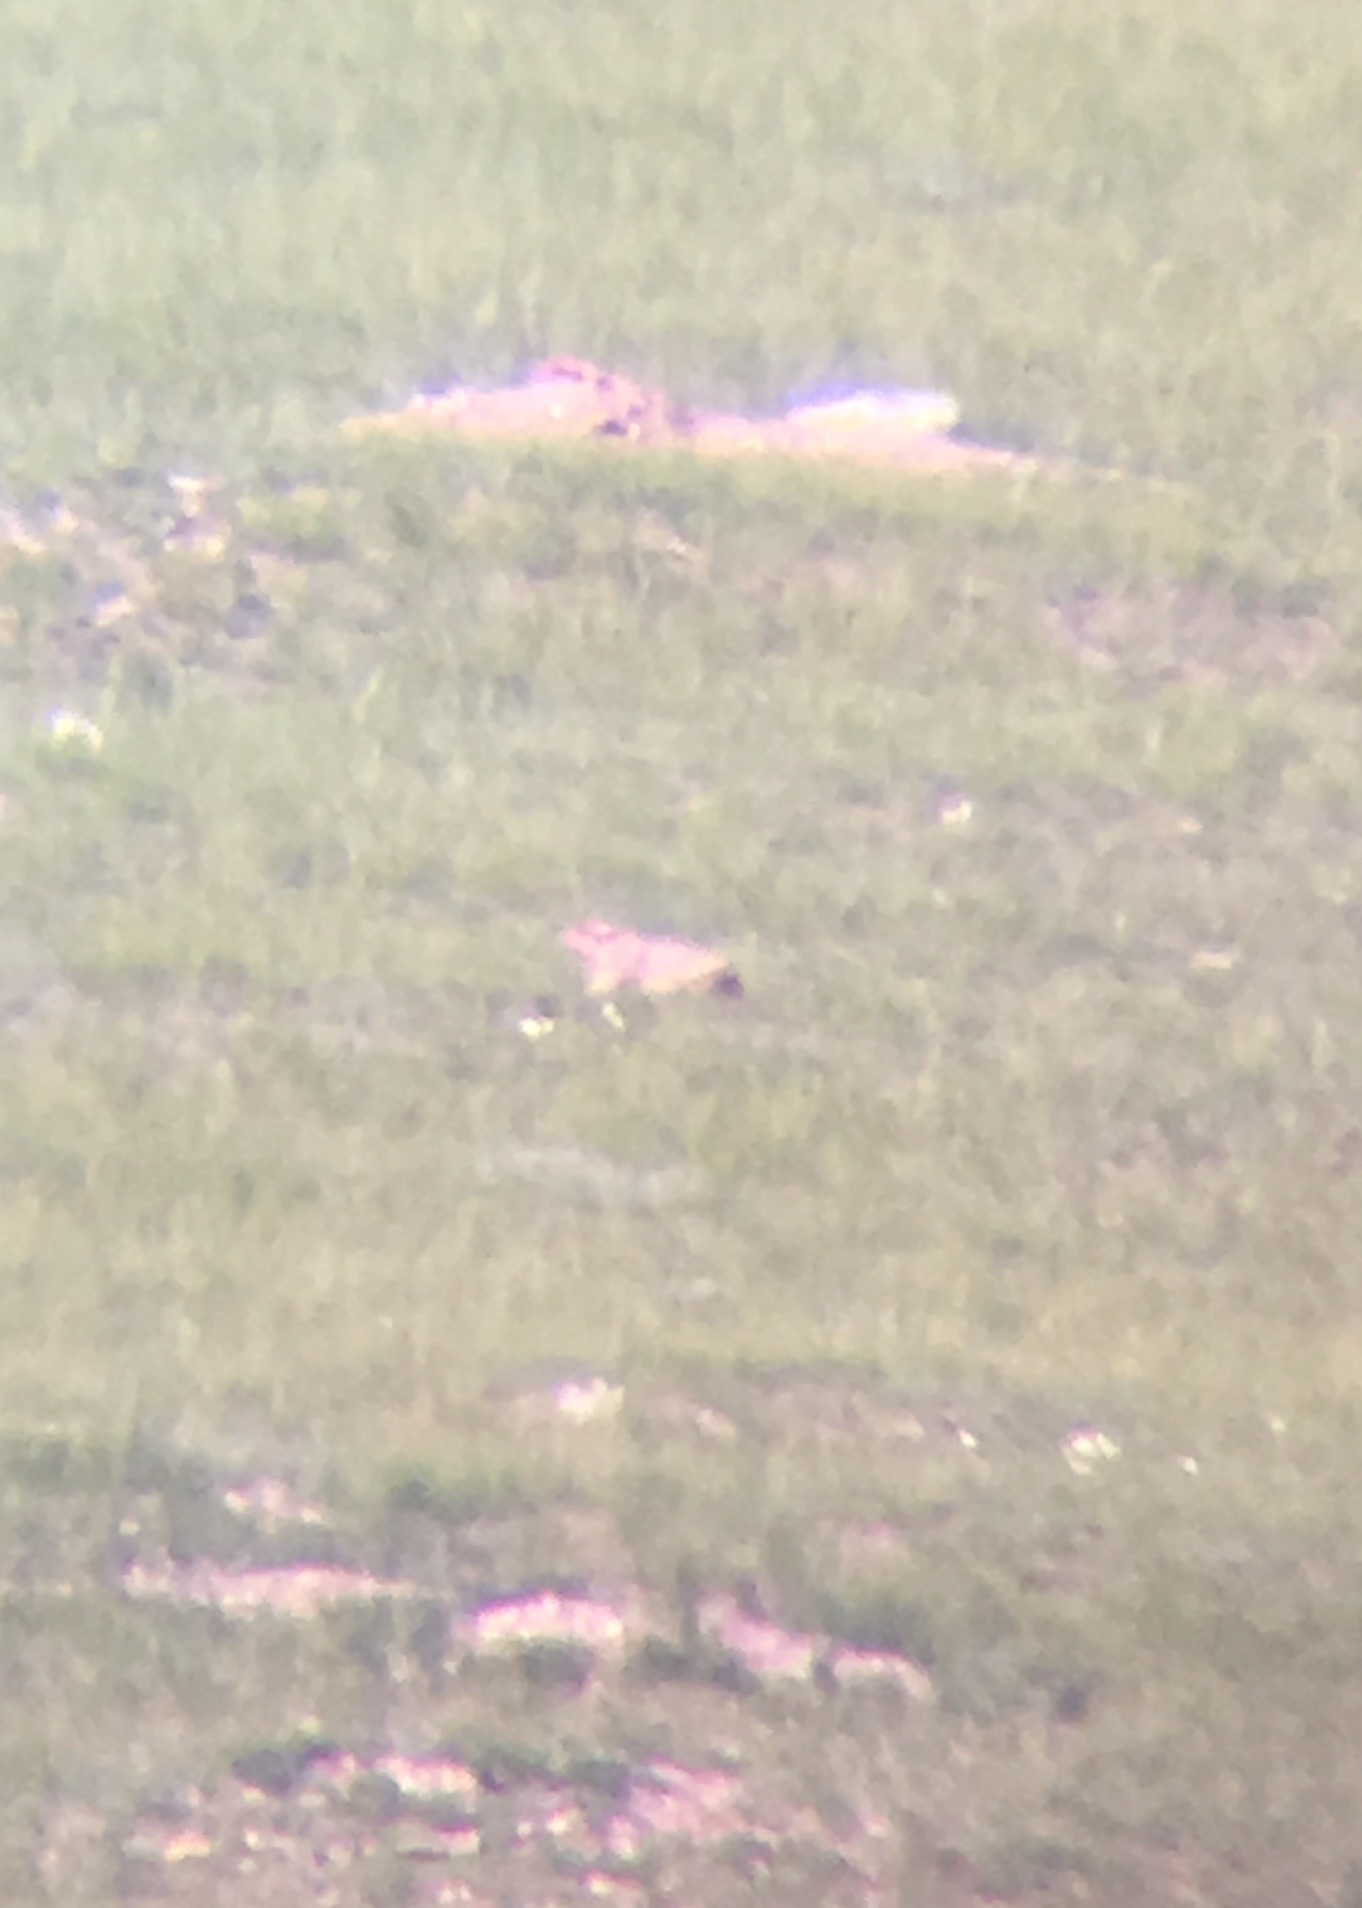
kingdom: Animalia
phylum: Chordata
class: Mammalia
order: Rodentia
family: Sciuridae
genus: Marmota
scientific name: Marmota sibirica
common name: Tarbagan marmot
